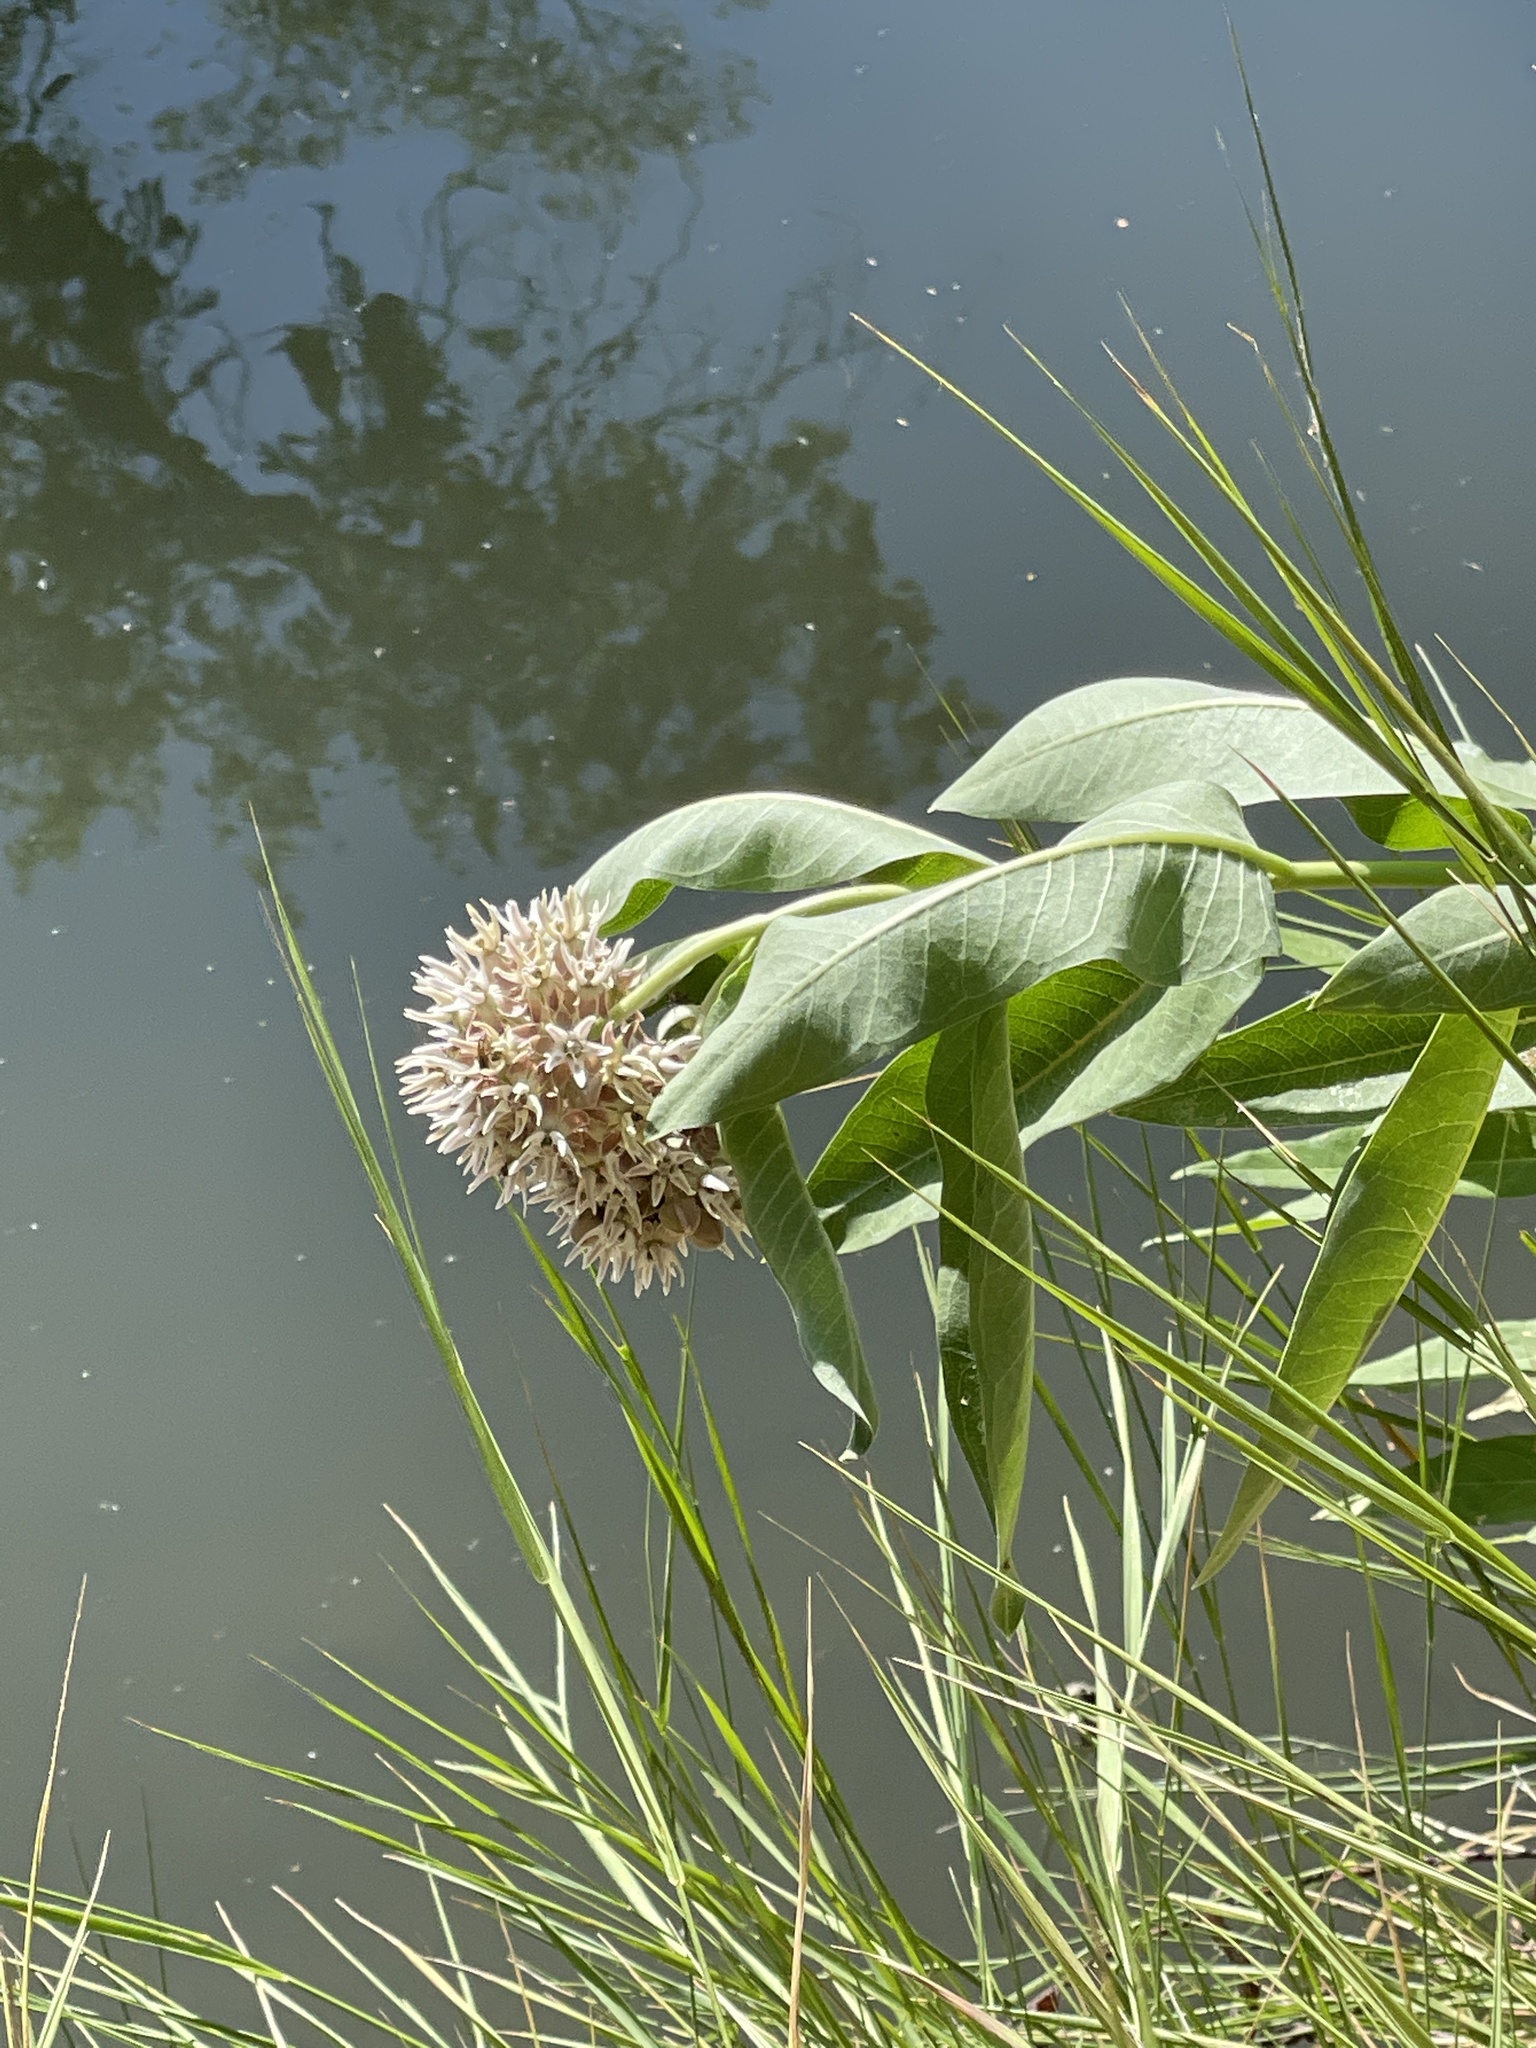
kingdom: Plantae
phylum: Tracheophyta
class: Magnoliopsida
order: Gentianales
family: Apocynaceae
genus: Asclepias
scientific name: Asclepias speciosa
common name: Showy milkweed
